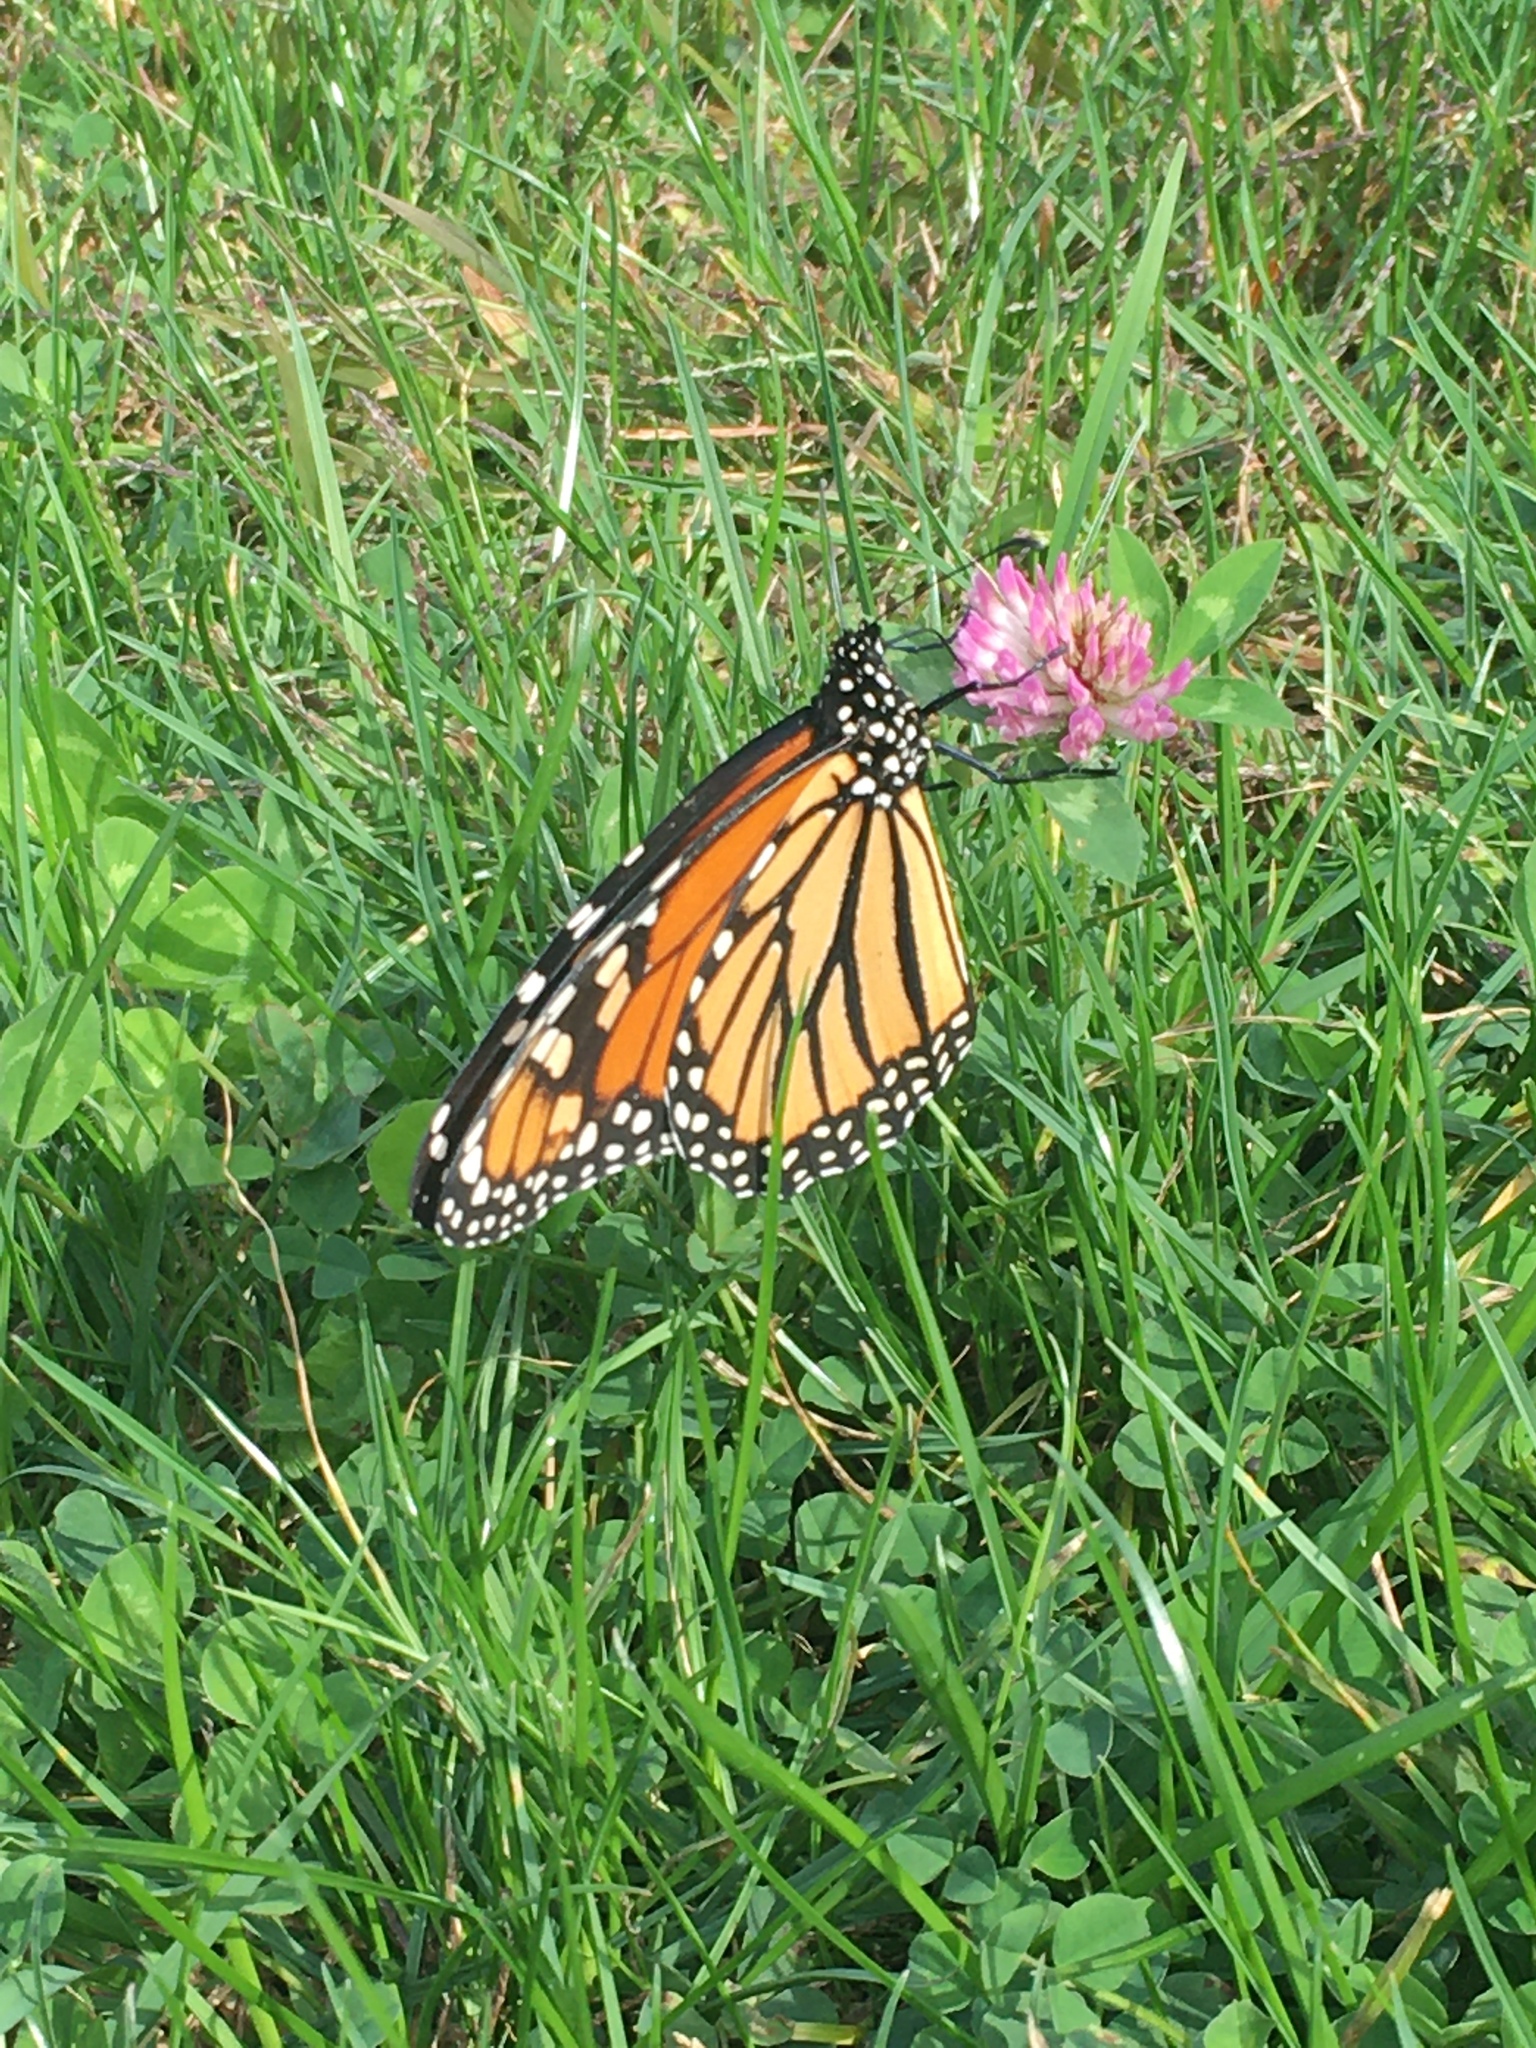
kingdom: Animalia
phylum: Arthropoda
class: Insecta
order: Lepidoptera
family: Nymphalidae
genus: Danaus
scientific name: Danaus plexippus
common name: Monarch
